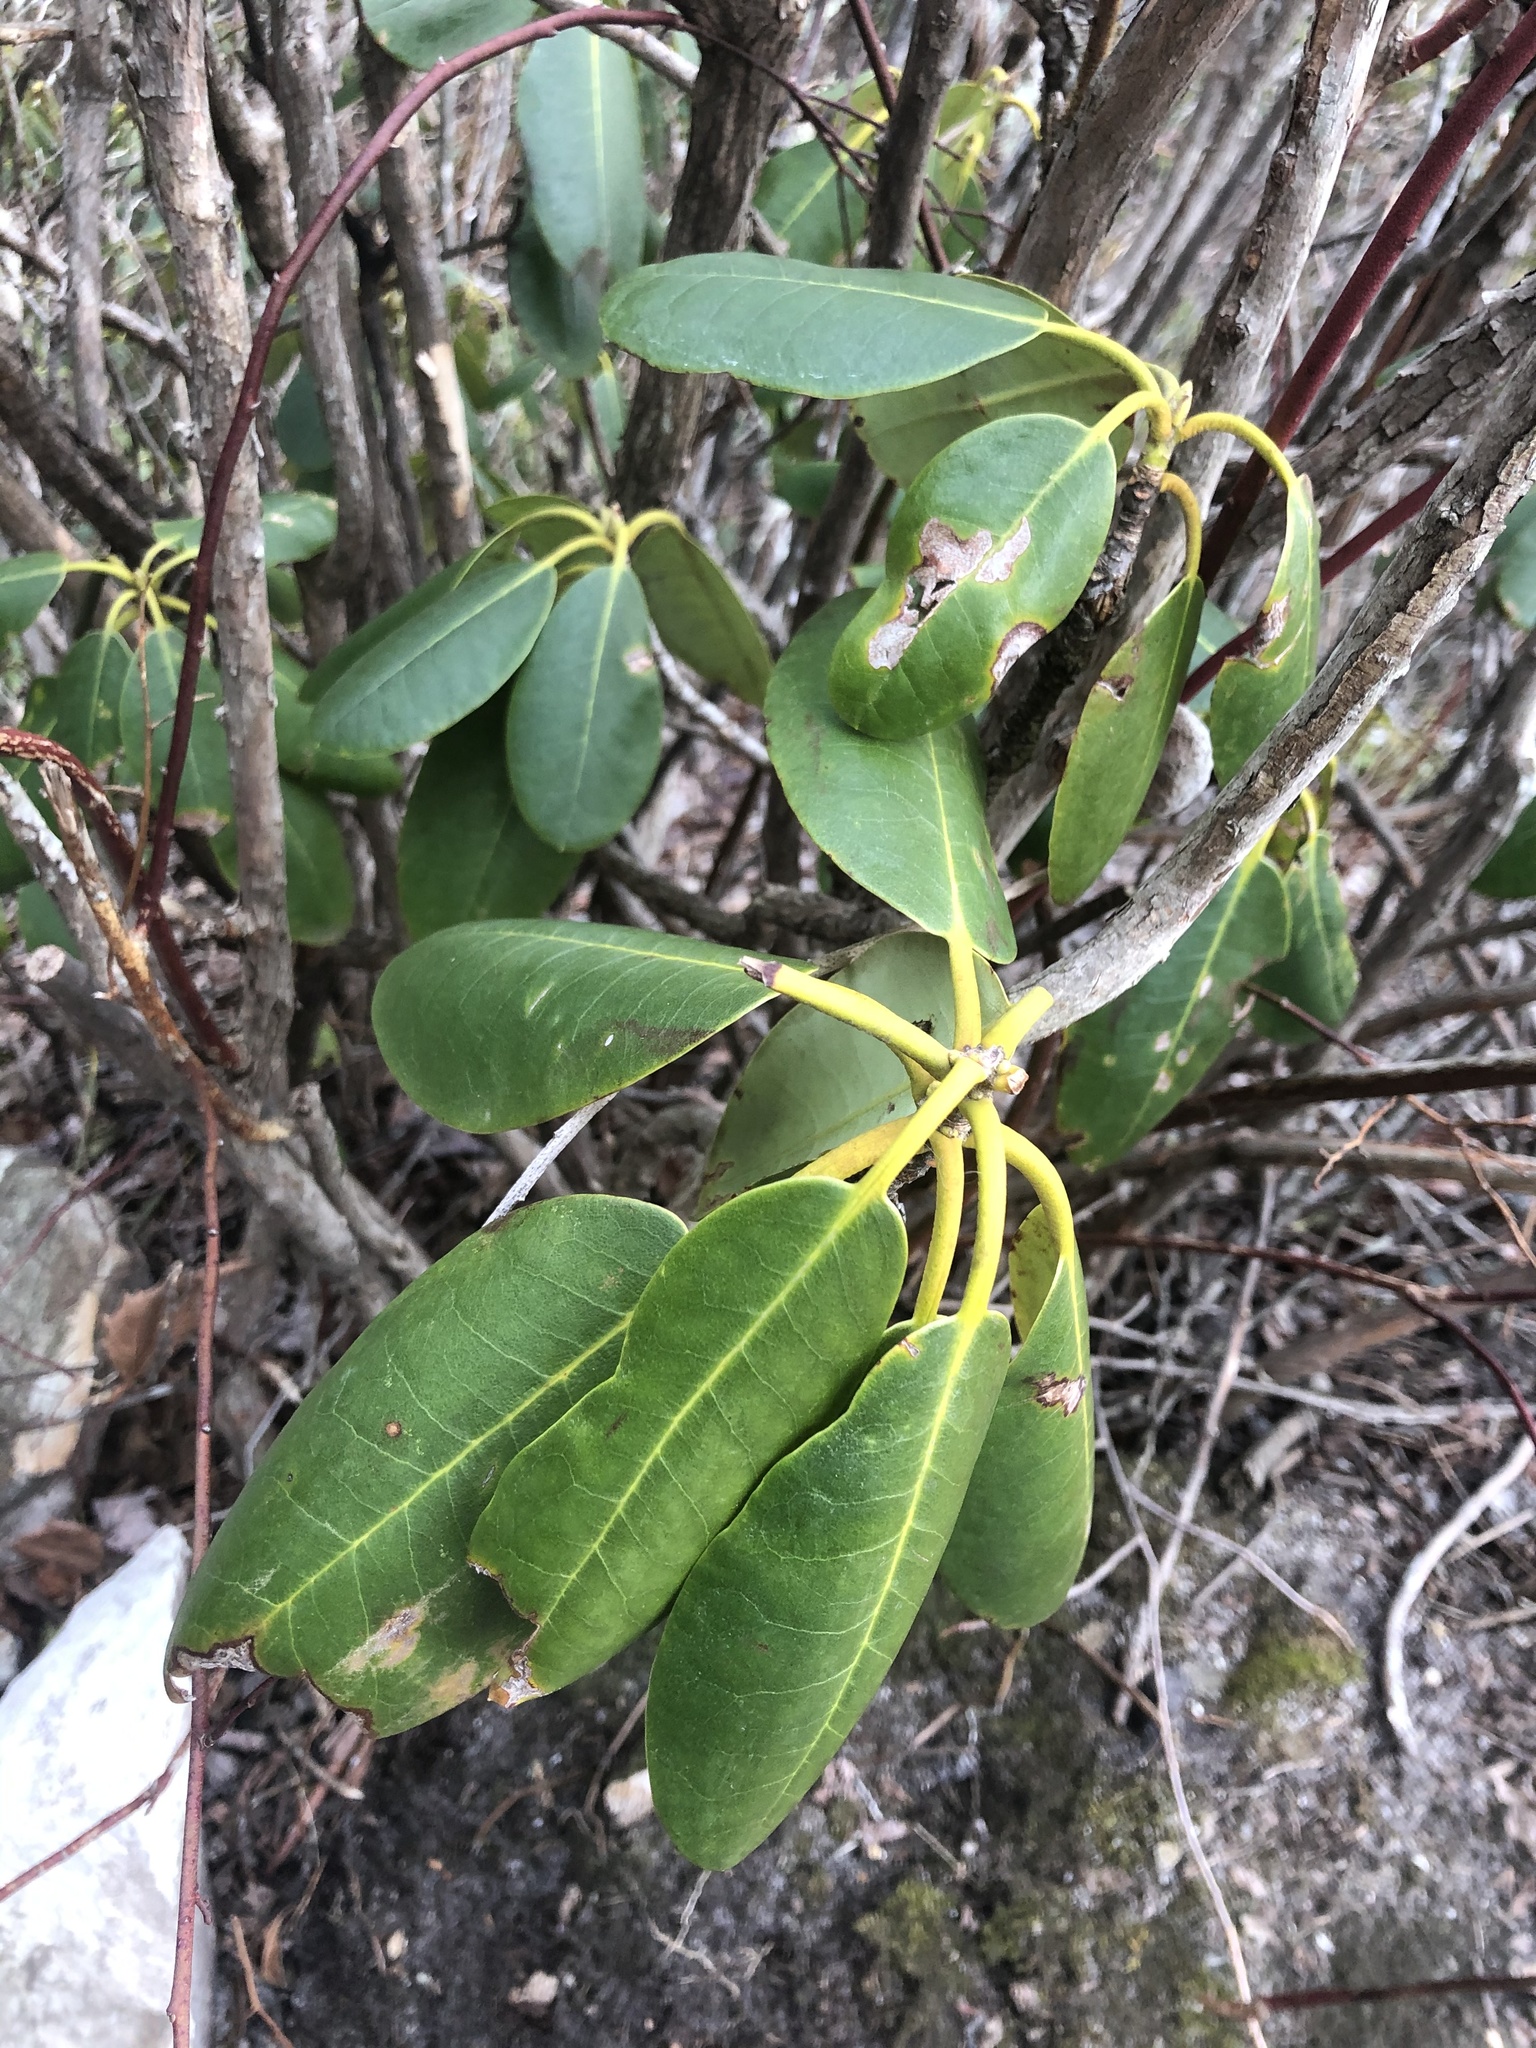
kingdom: Plantae
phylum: Tracheophyta
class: Magnoliopsida
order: Ericales
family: Ericaceae
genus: Rhododendron
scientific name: Rhododendron catawbiense
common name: Catawba rhododendron
